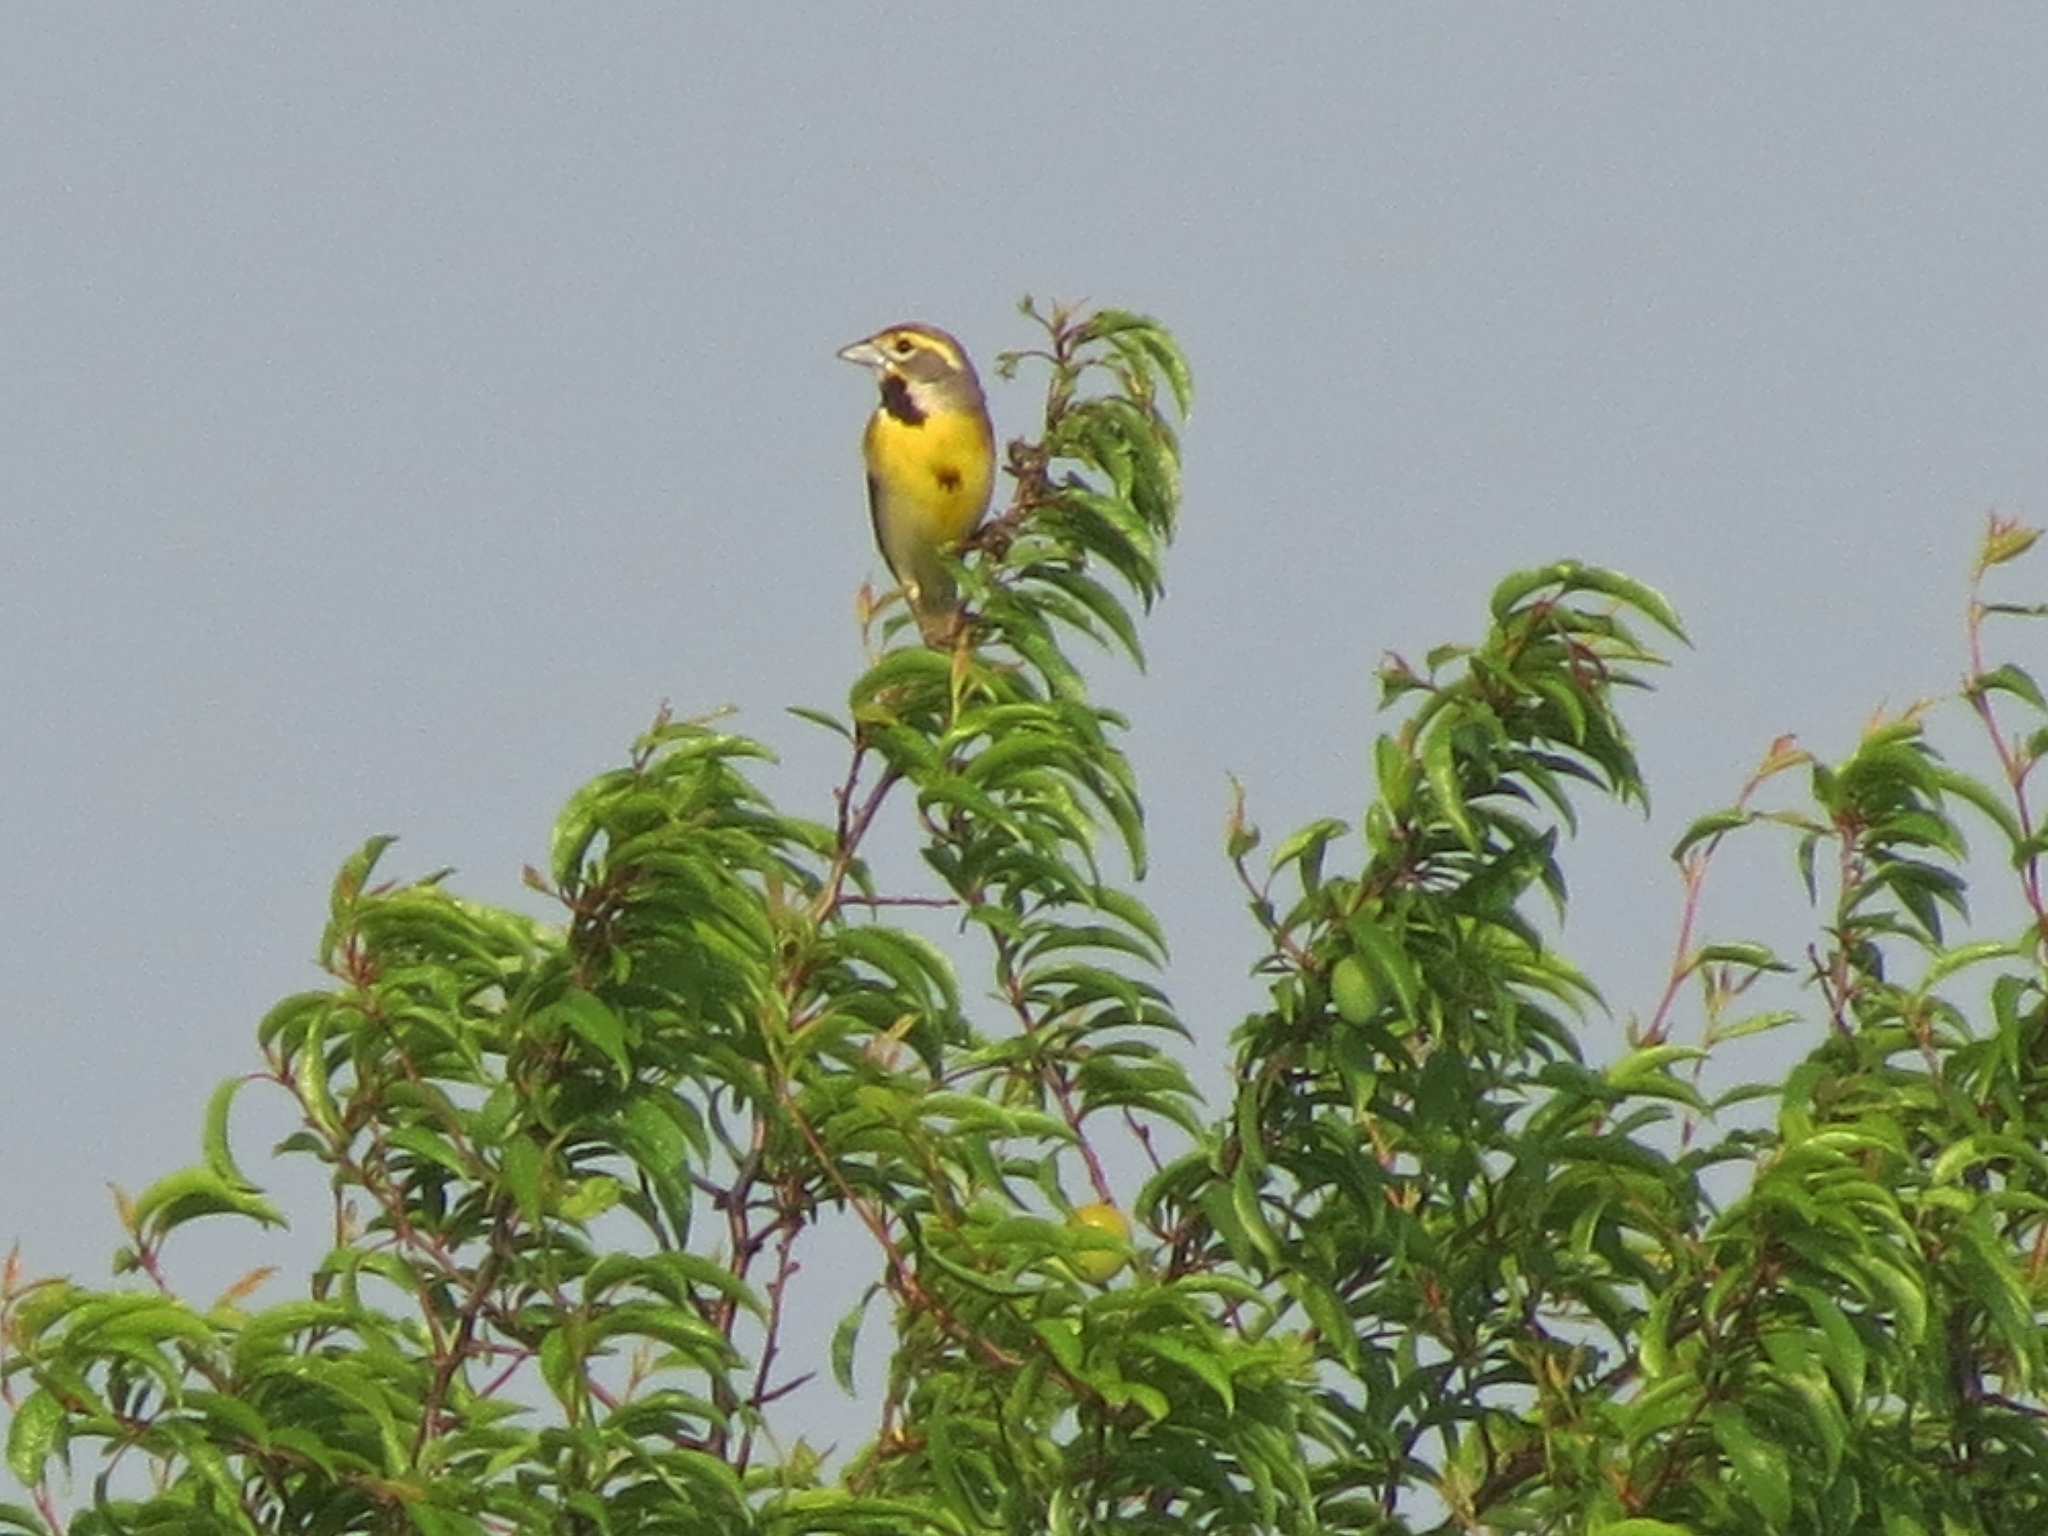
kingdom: Animalia
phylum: Chordata
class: Aves
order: Passeriformes
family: Cardinalidae
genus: Spiza
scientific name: Spiza americana
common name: Dickcissel
